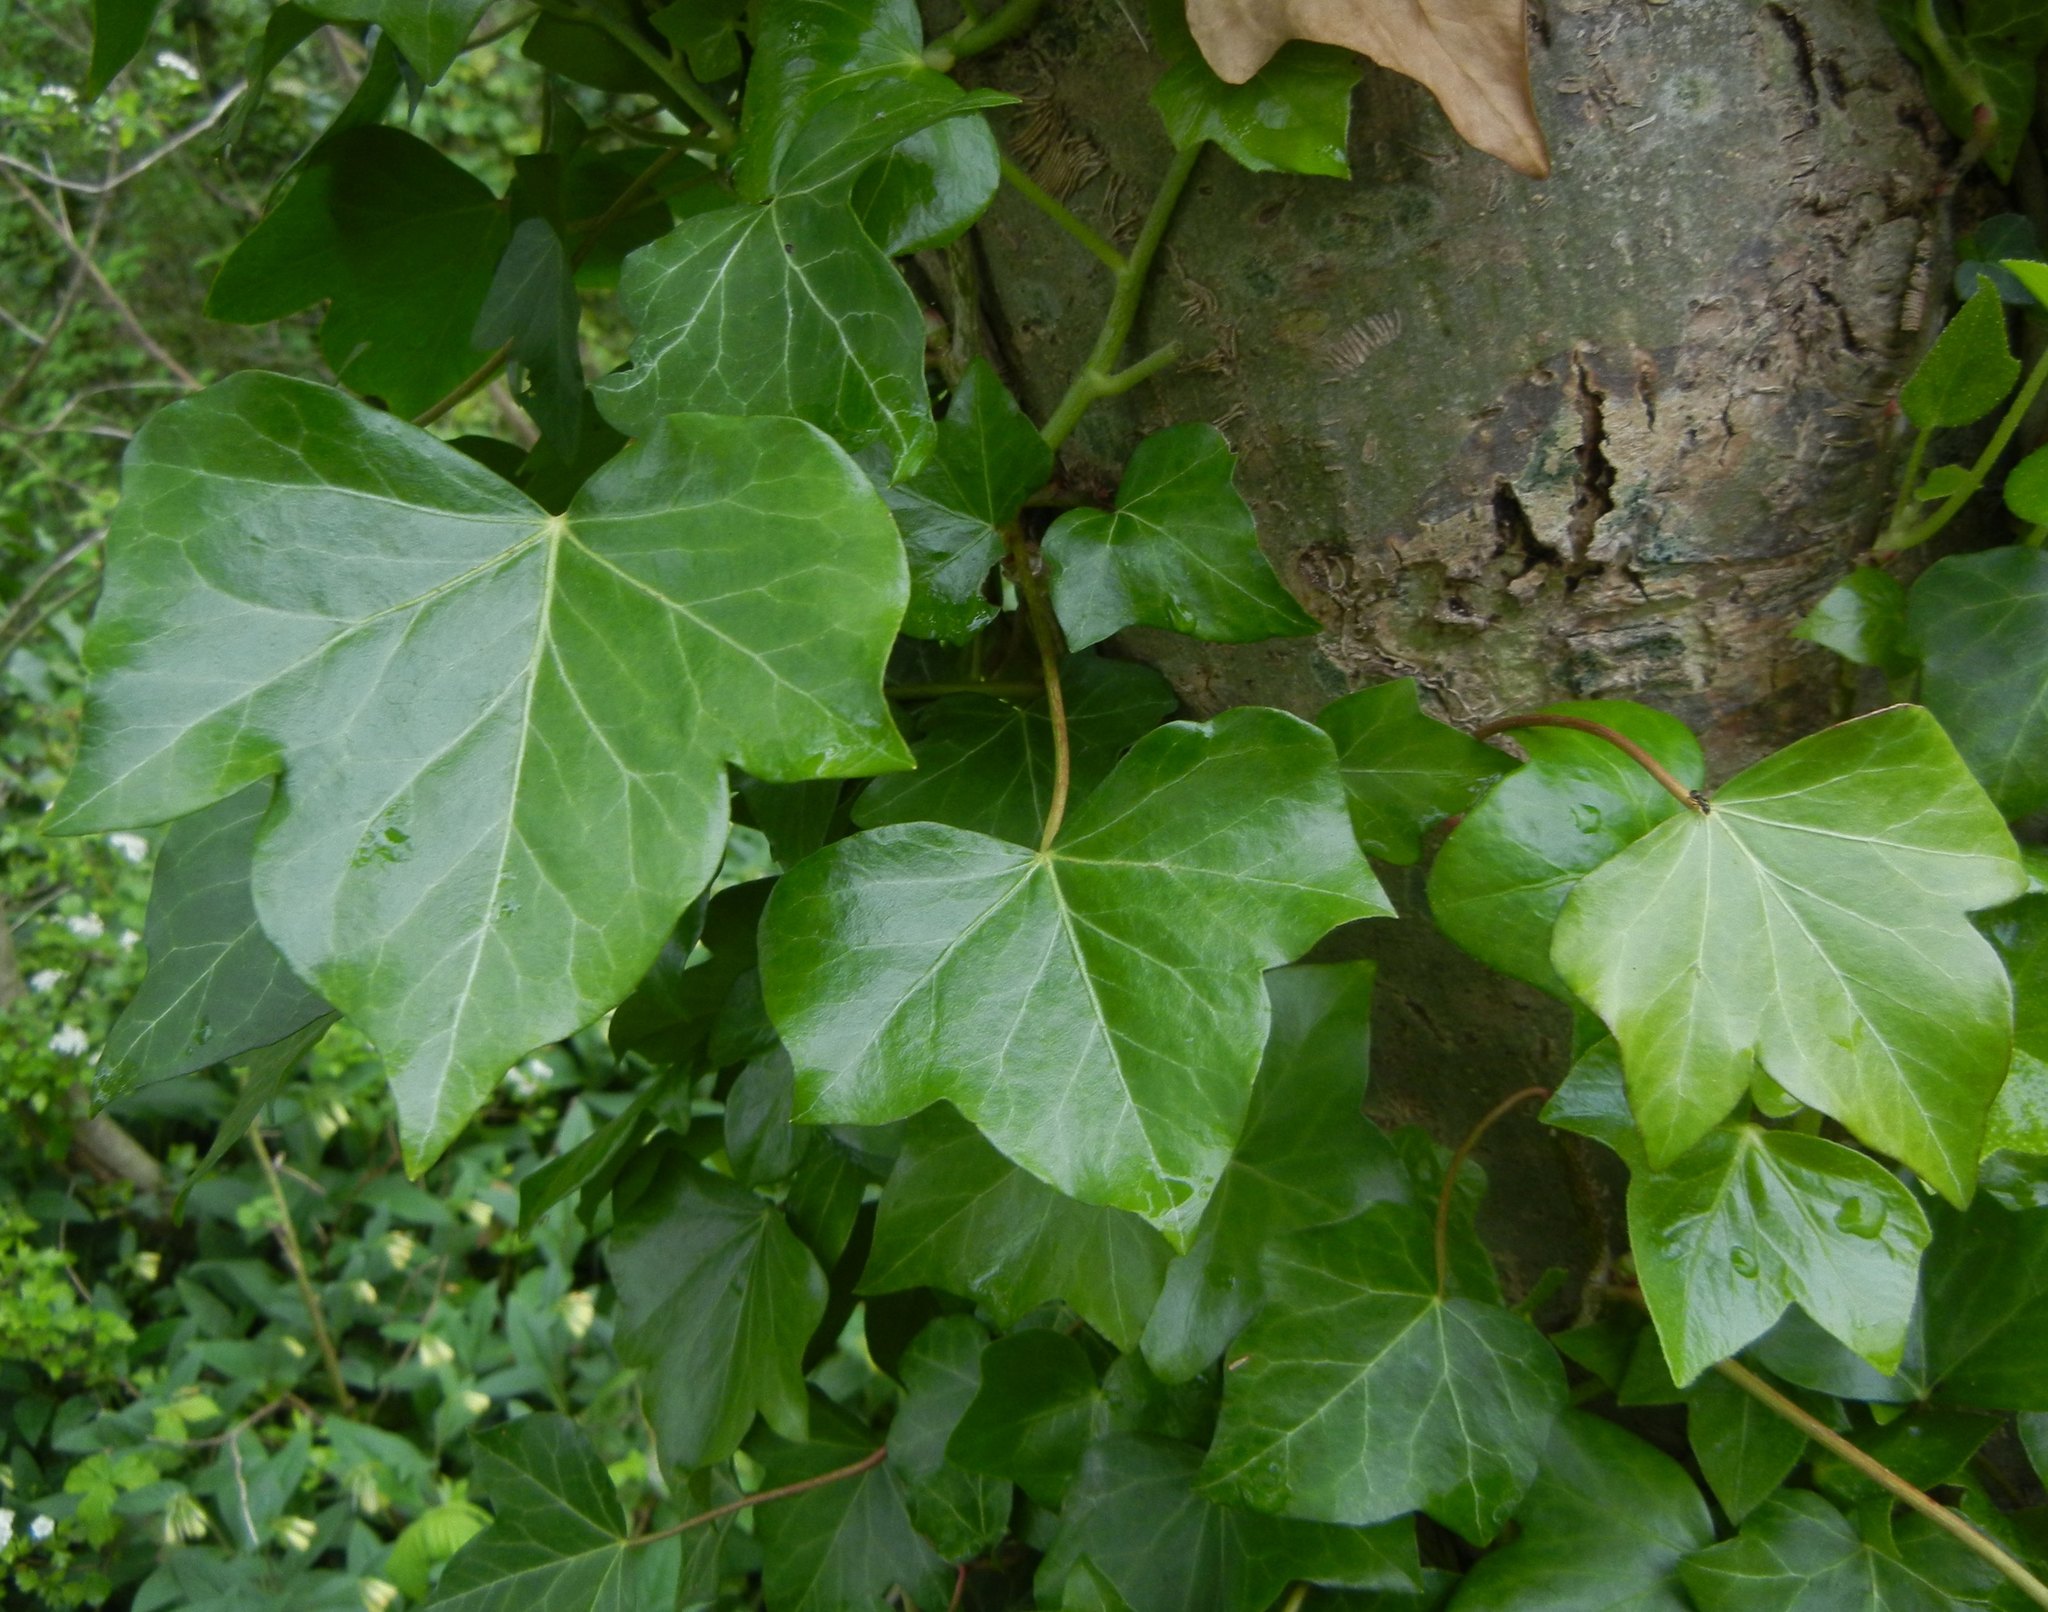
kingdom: Plantae
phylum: Tracheophyta
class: Magnoliopsida
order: Apiales
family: Araliaceae
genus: Hedera
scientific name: Hedera helix
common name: Ivy
